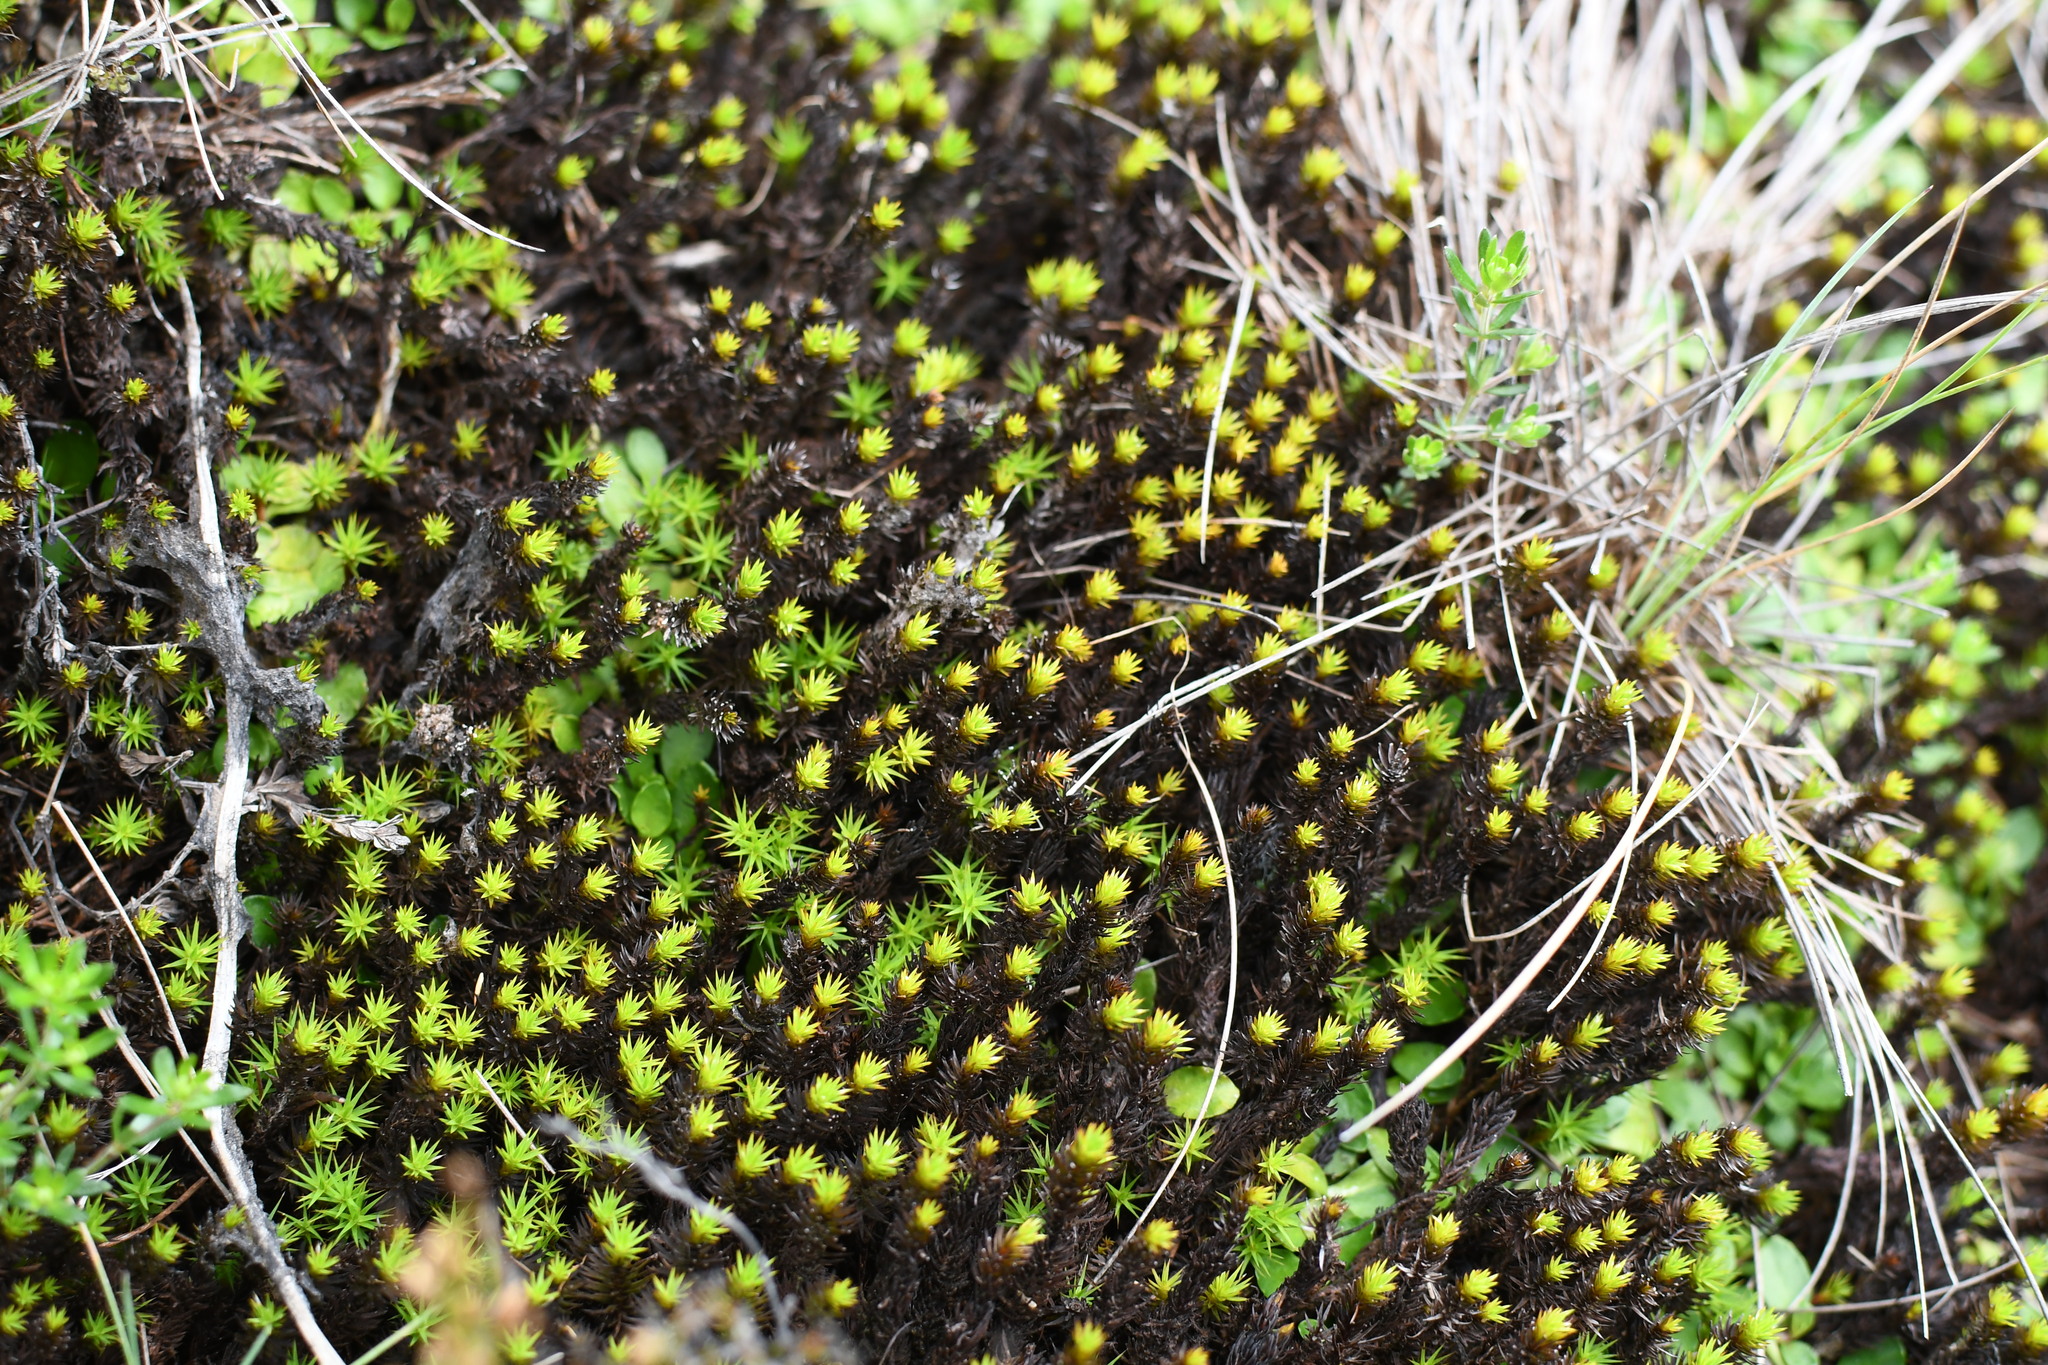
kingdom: Plantae
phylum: Bryophyta
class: Polytrichopsida
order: Polytrichales
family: Polytrichaceae
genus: Polytrichum
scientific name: Polytrichum commune
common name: Common haircap
